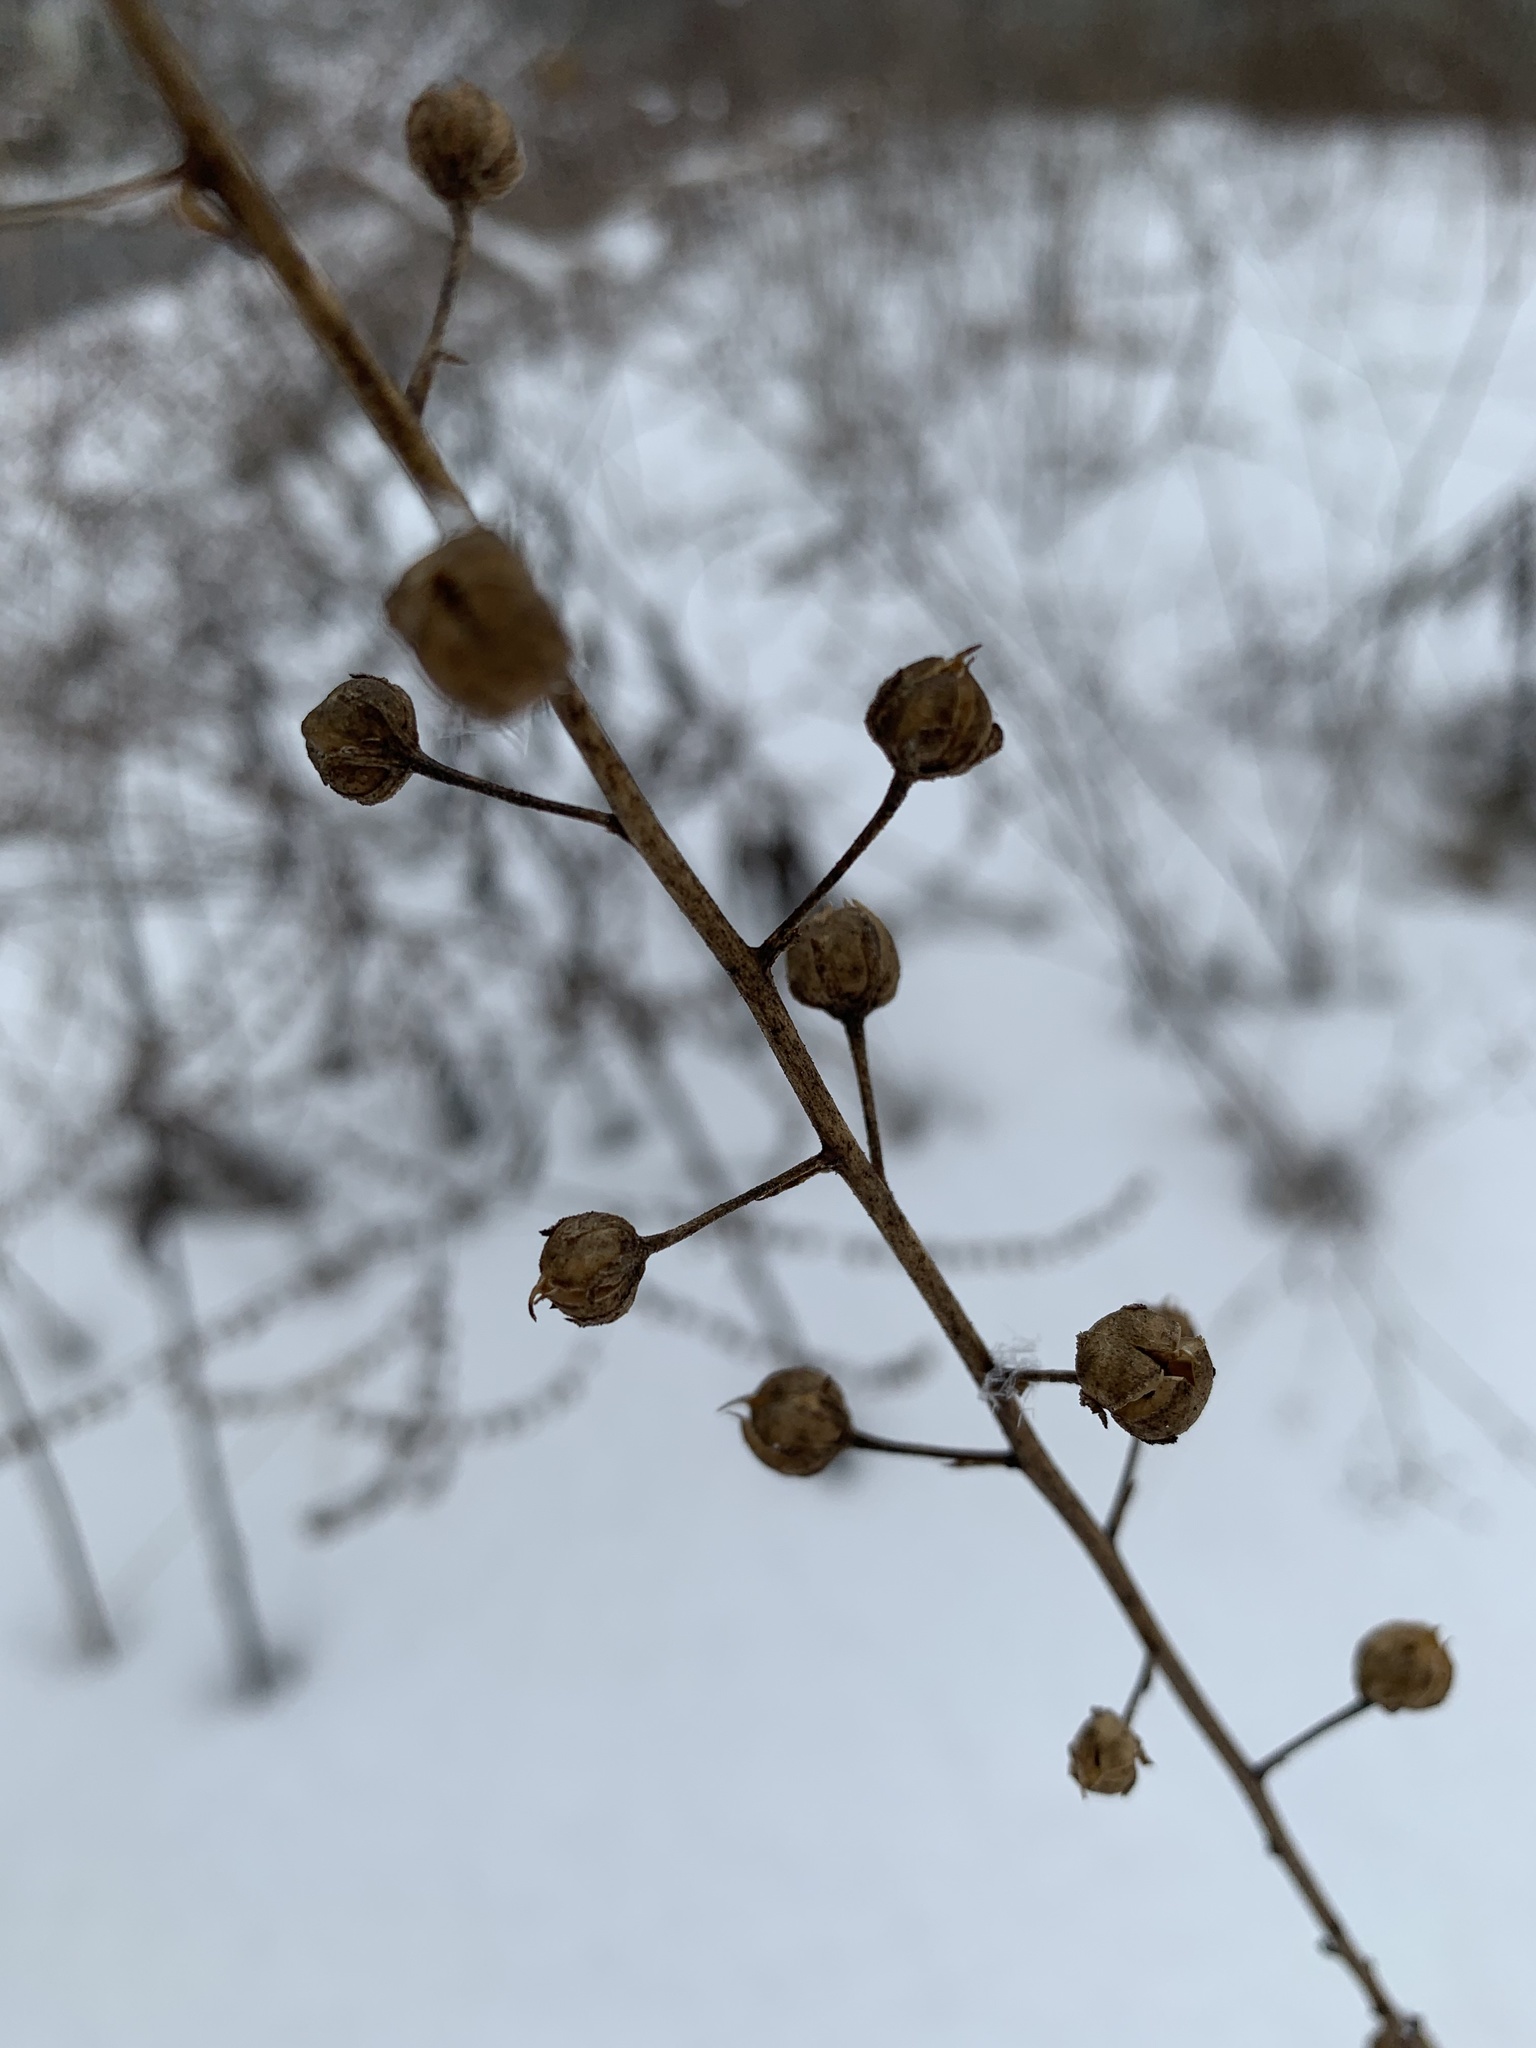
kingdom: Plantae
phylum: Tracheophyta
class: Magnoliopsida
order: Lamiales
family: Scrophulariaceae
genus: Verbascum
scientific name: Verbascum blattaria
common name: Moth mullein
